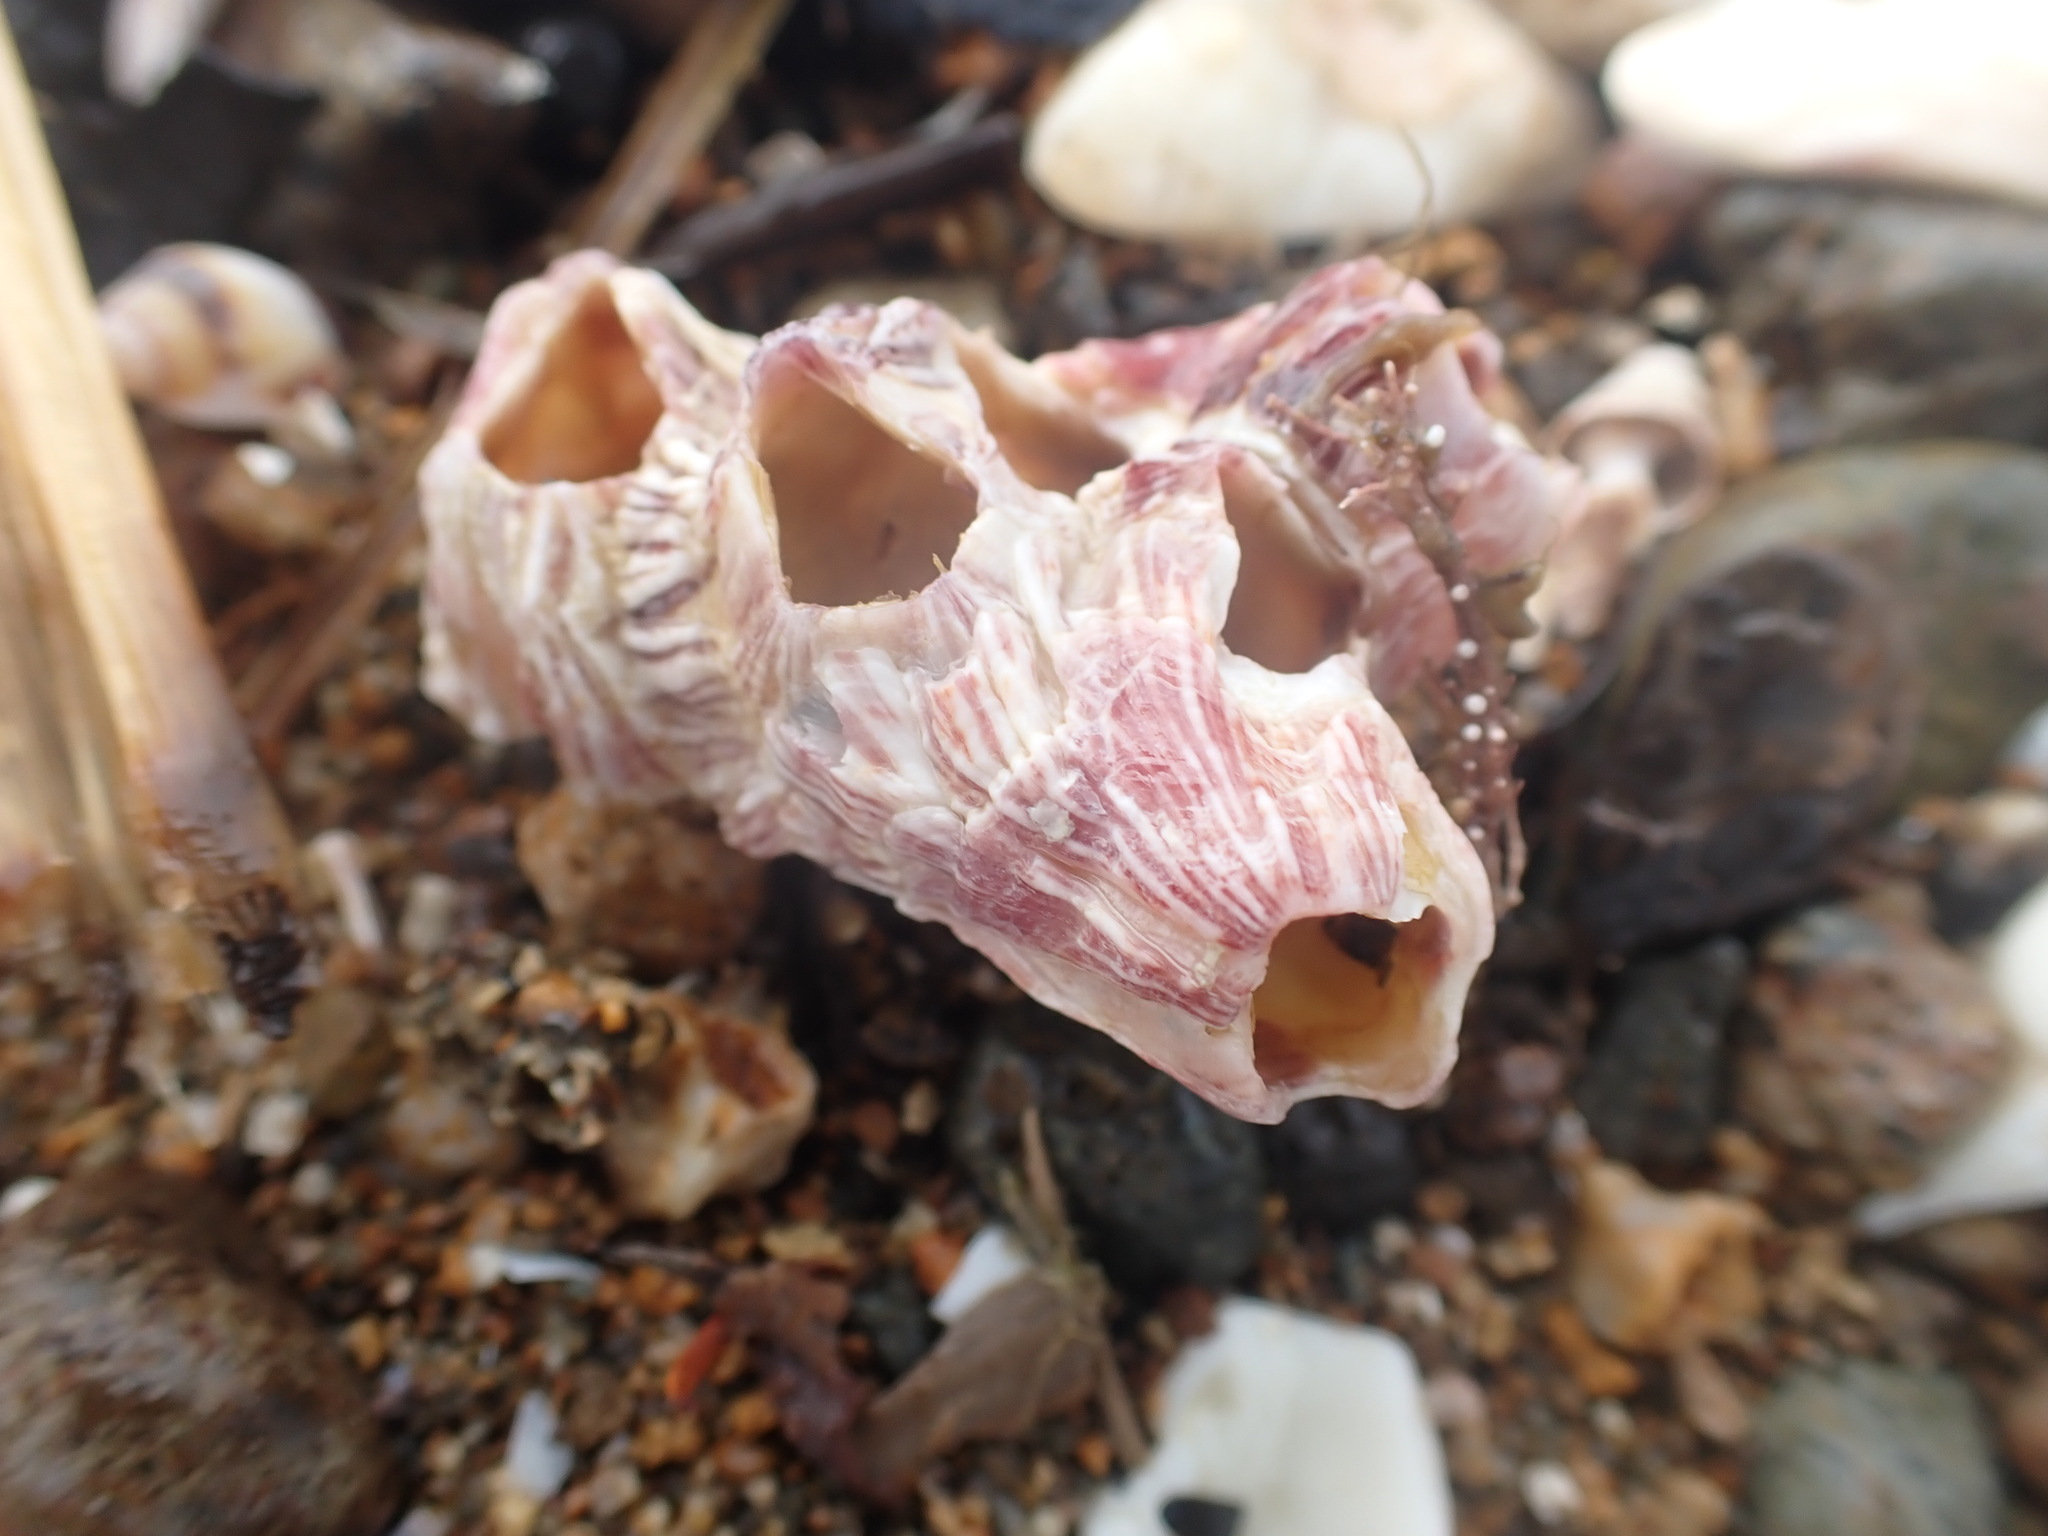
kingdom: Animalia
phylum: Arthropoda
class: Maxillopoda
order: Sessilia
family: Balanidae
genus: Balanus
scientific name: Balanus trigonus
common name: Triangle barnacle
